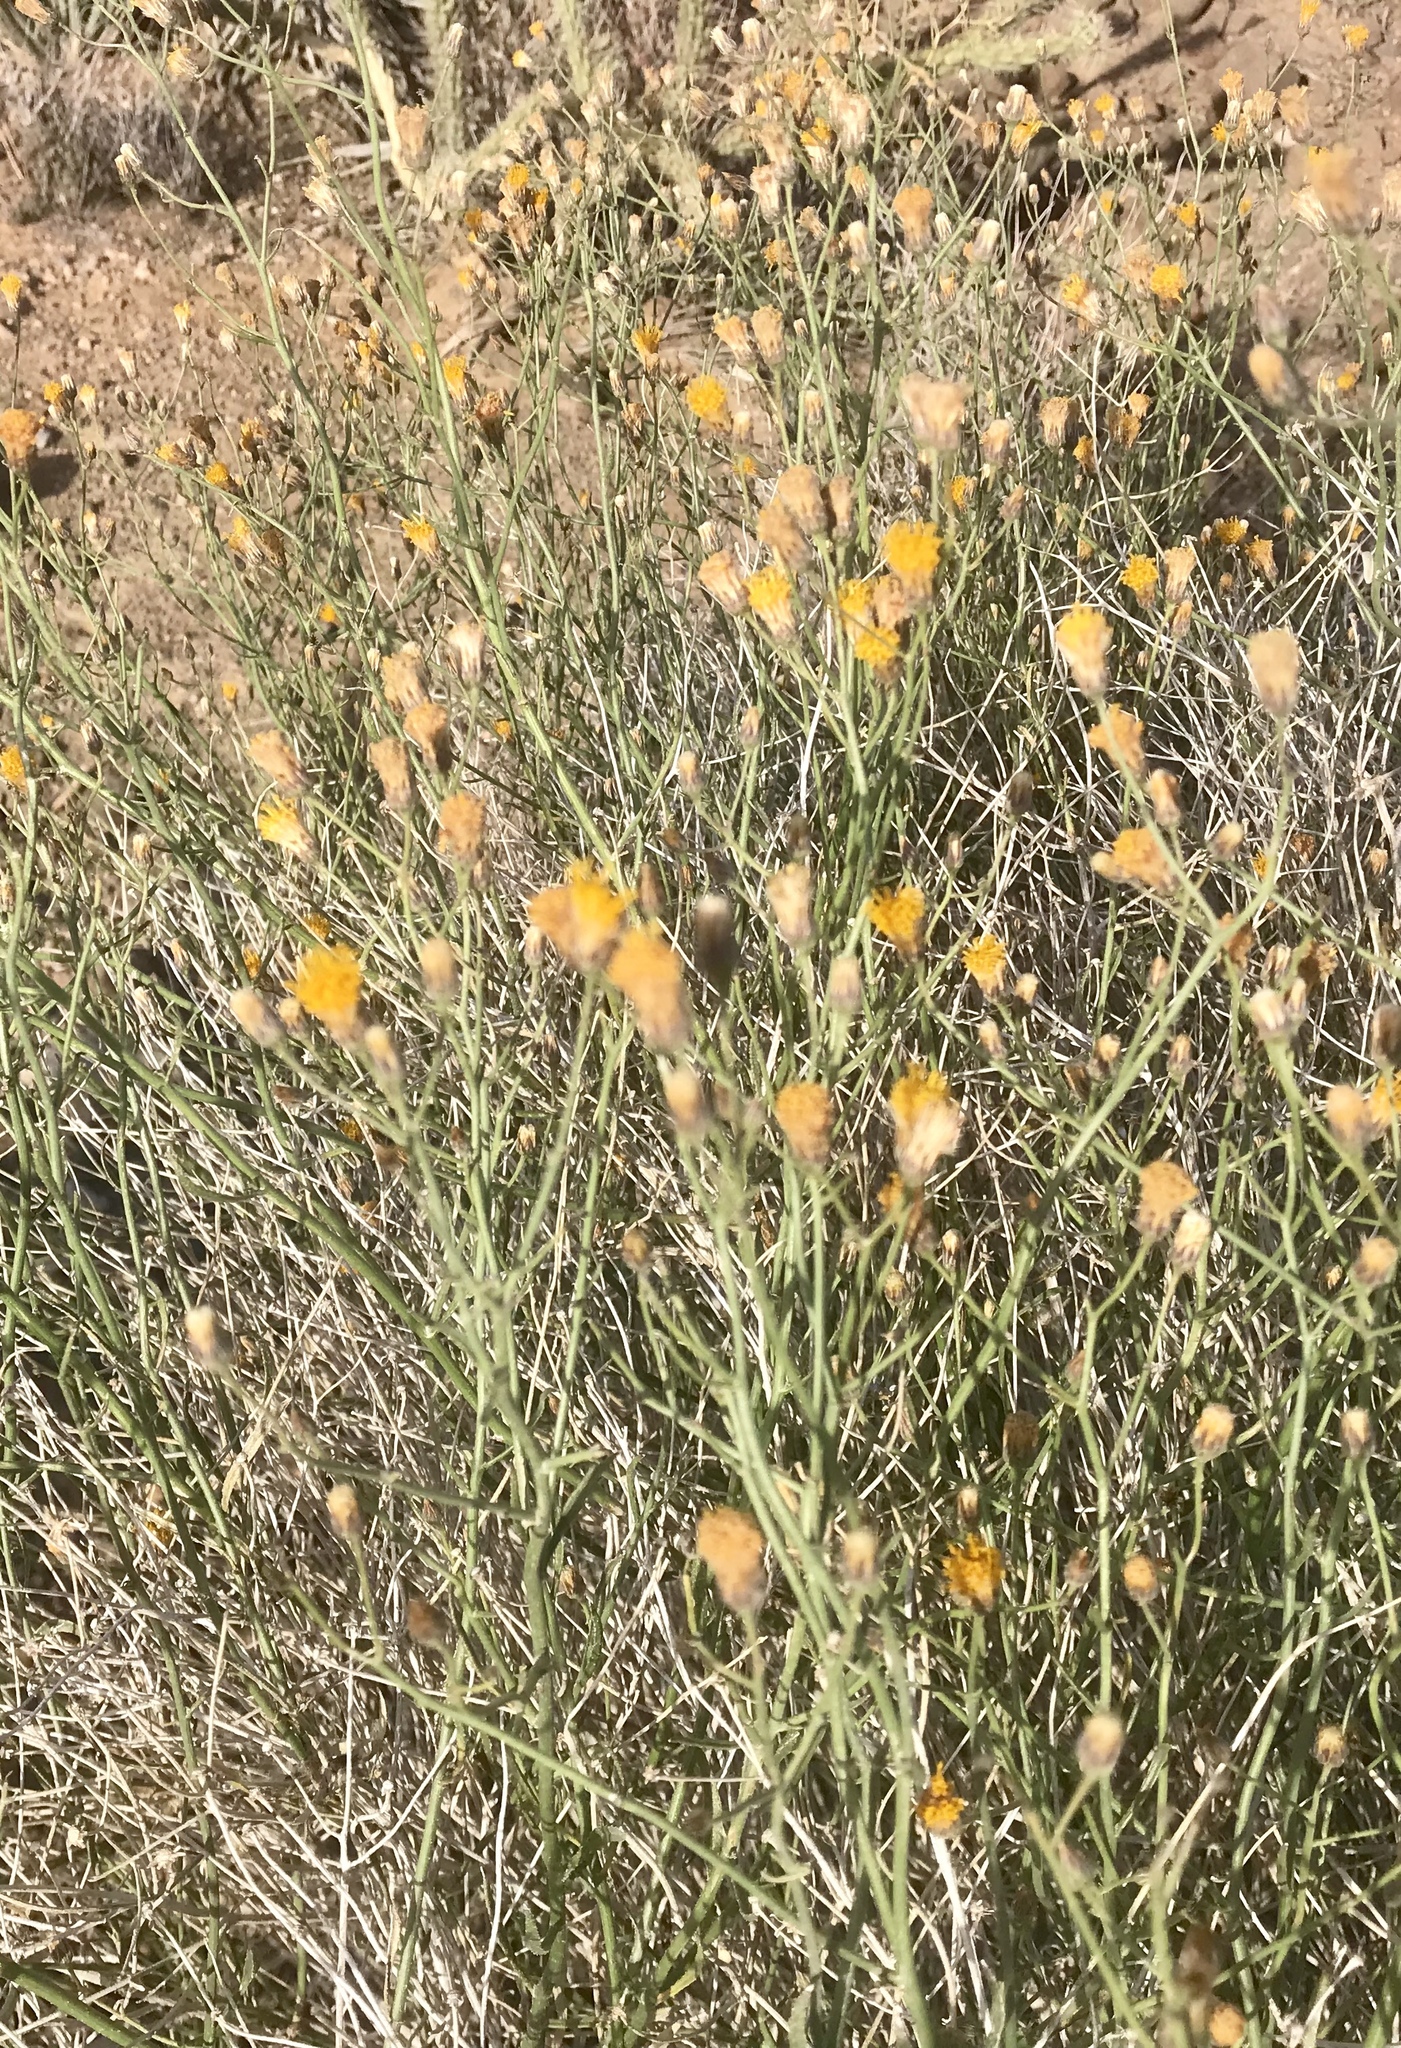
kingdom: Plantae
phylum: Tracheophyta
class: Magnoliopsida
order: Asterales
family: Asteraceae
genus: Bebbia
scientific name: Bebbia juncea
